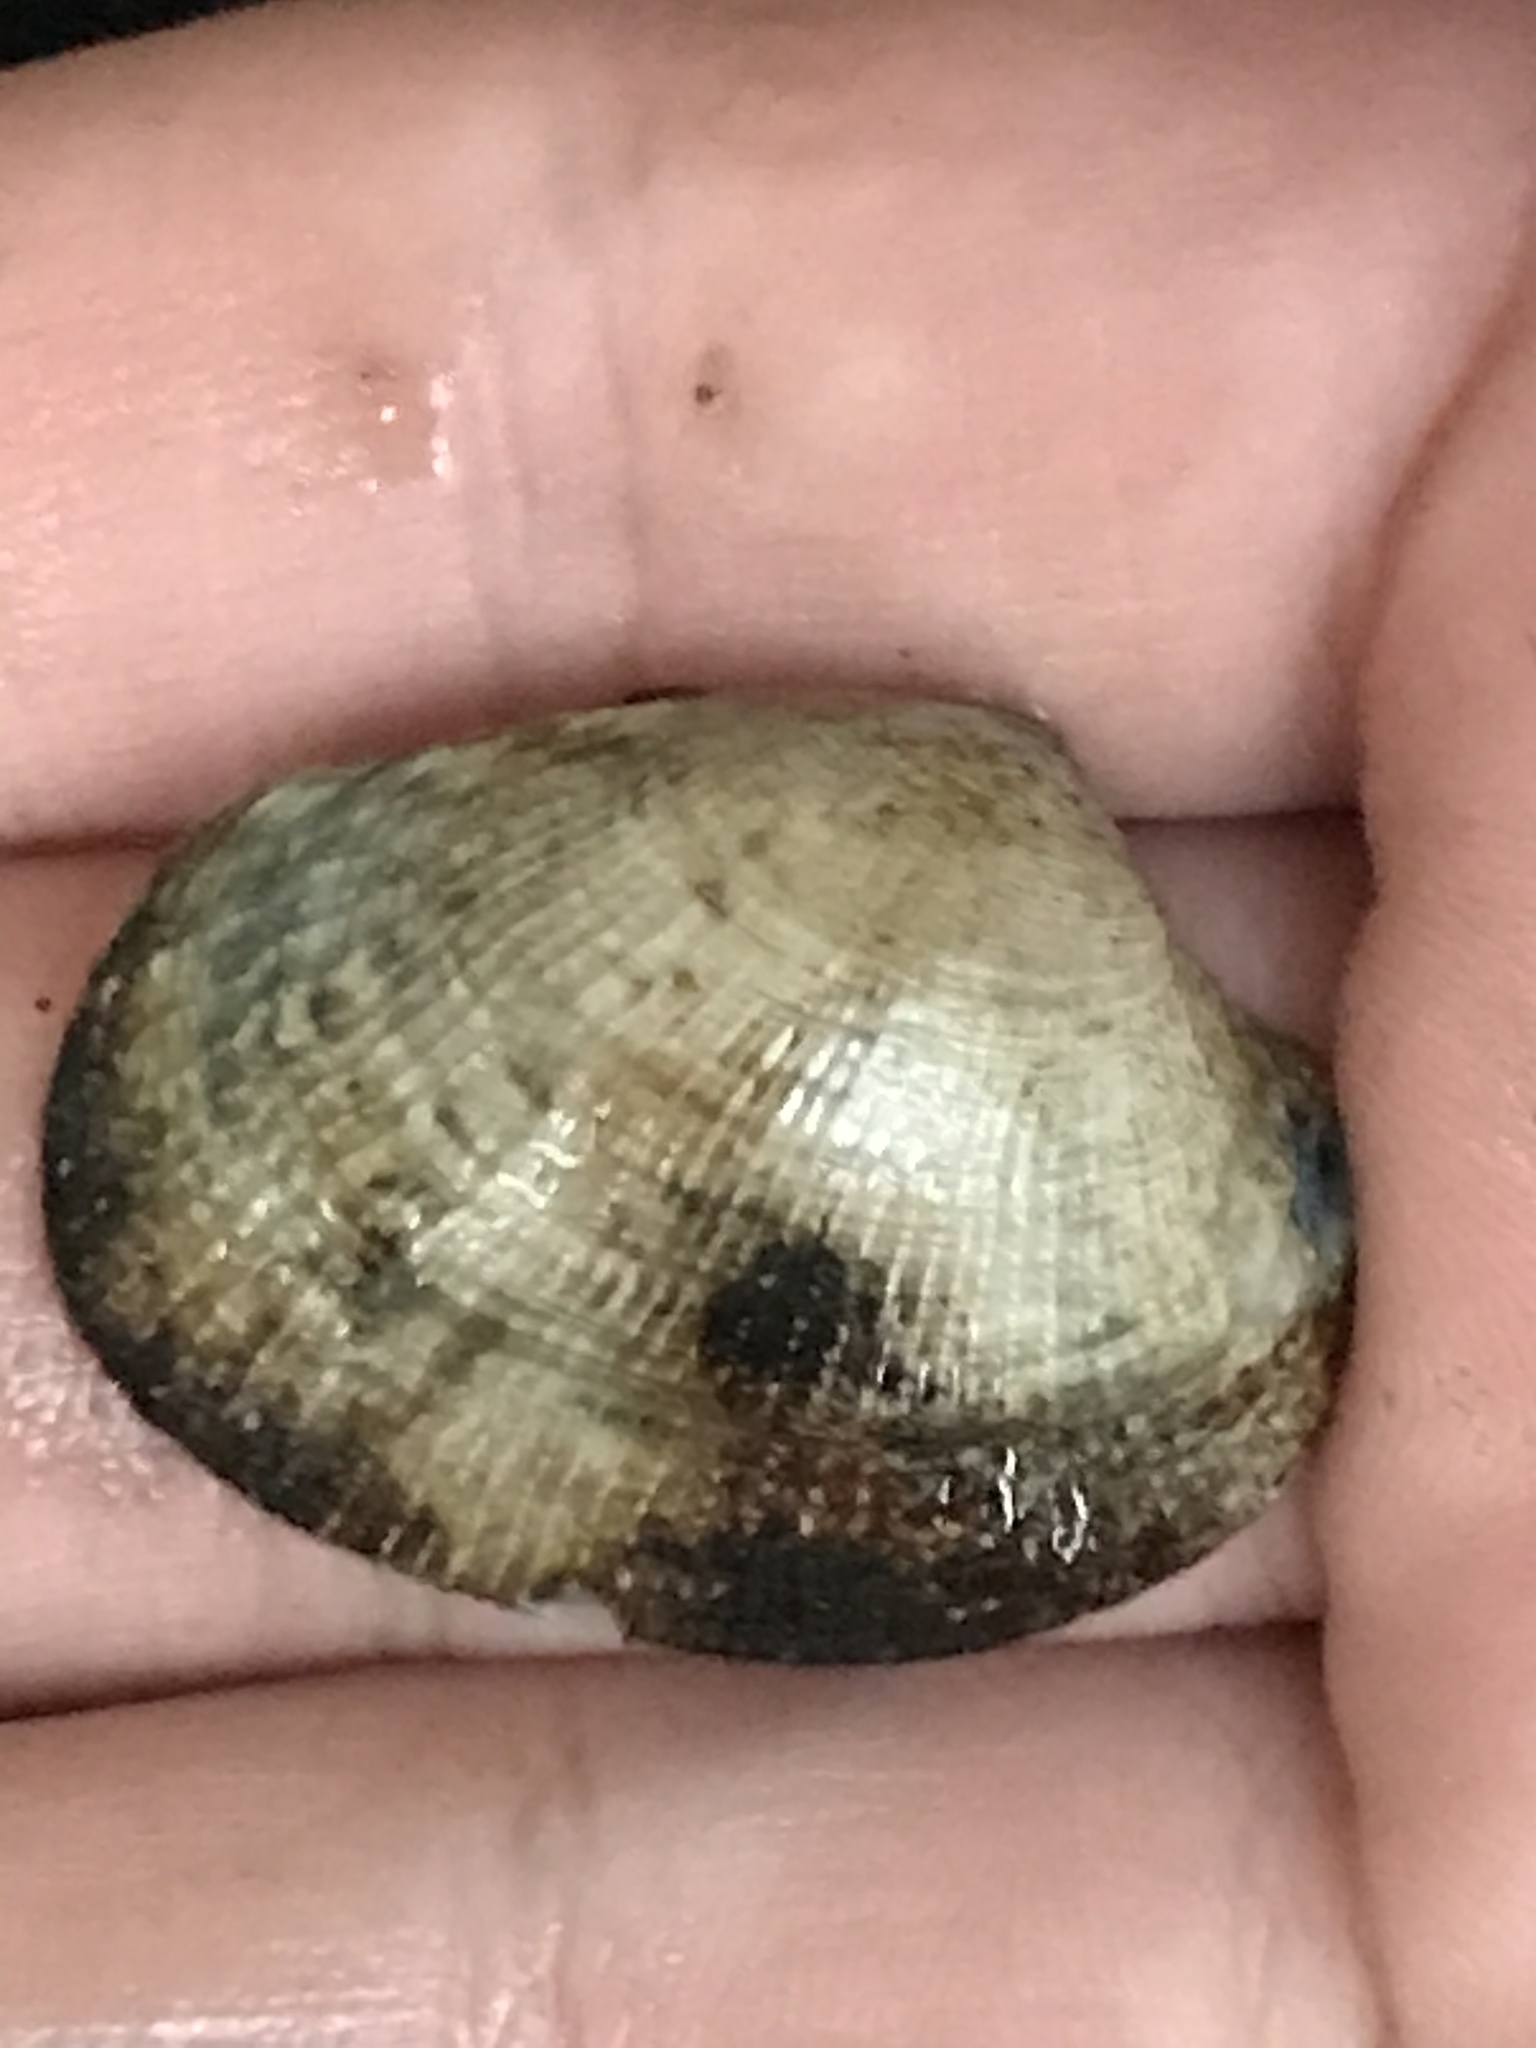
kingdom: Animalia
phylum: Mollusca
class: Bivalvia
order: Venerida
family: Veneridae
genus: Ruditapes
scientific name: Ruditapes philippinarum
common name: Manila clam
